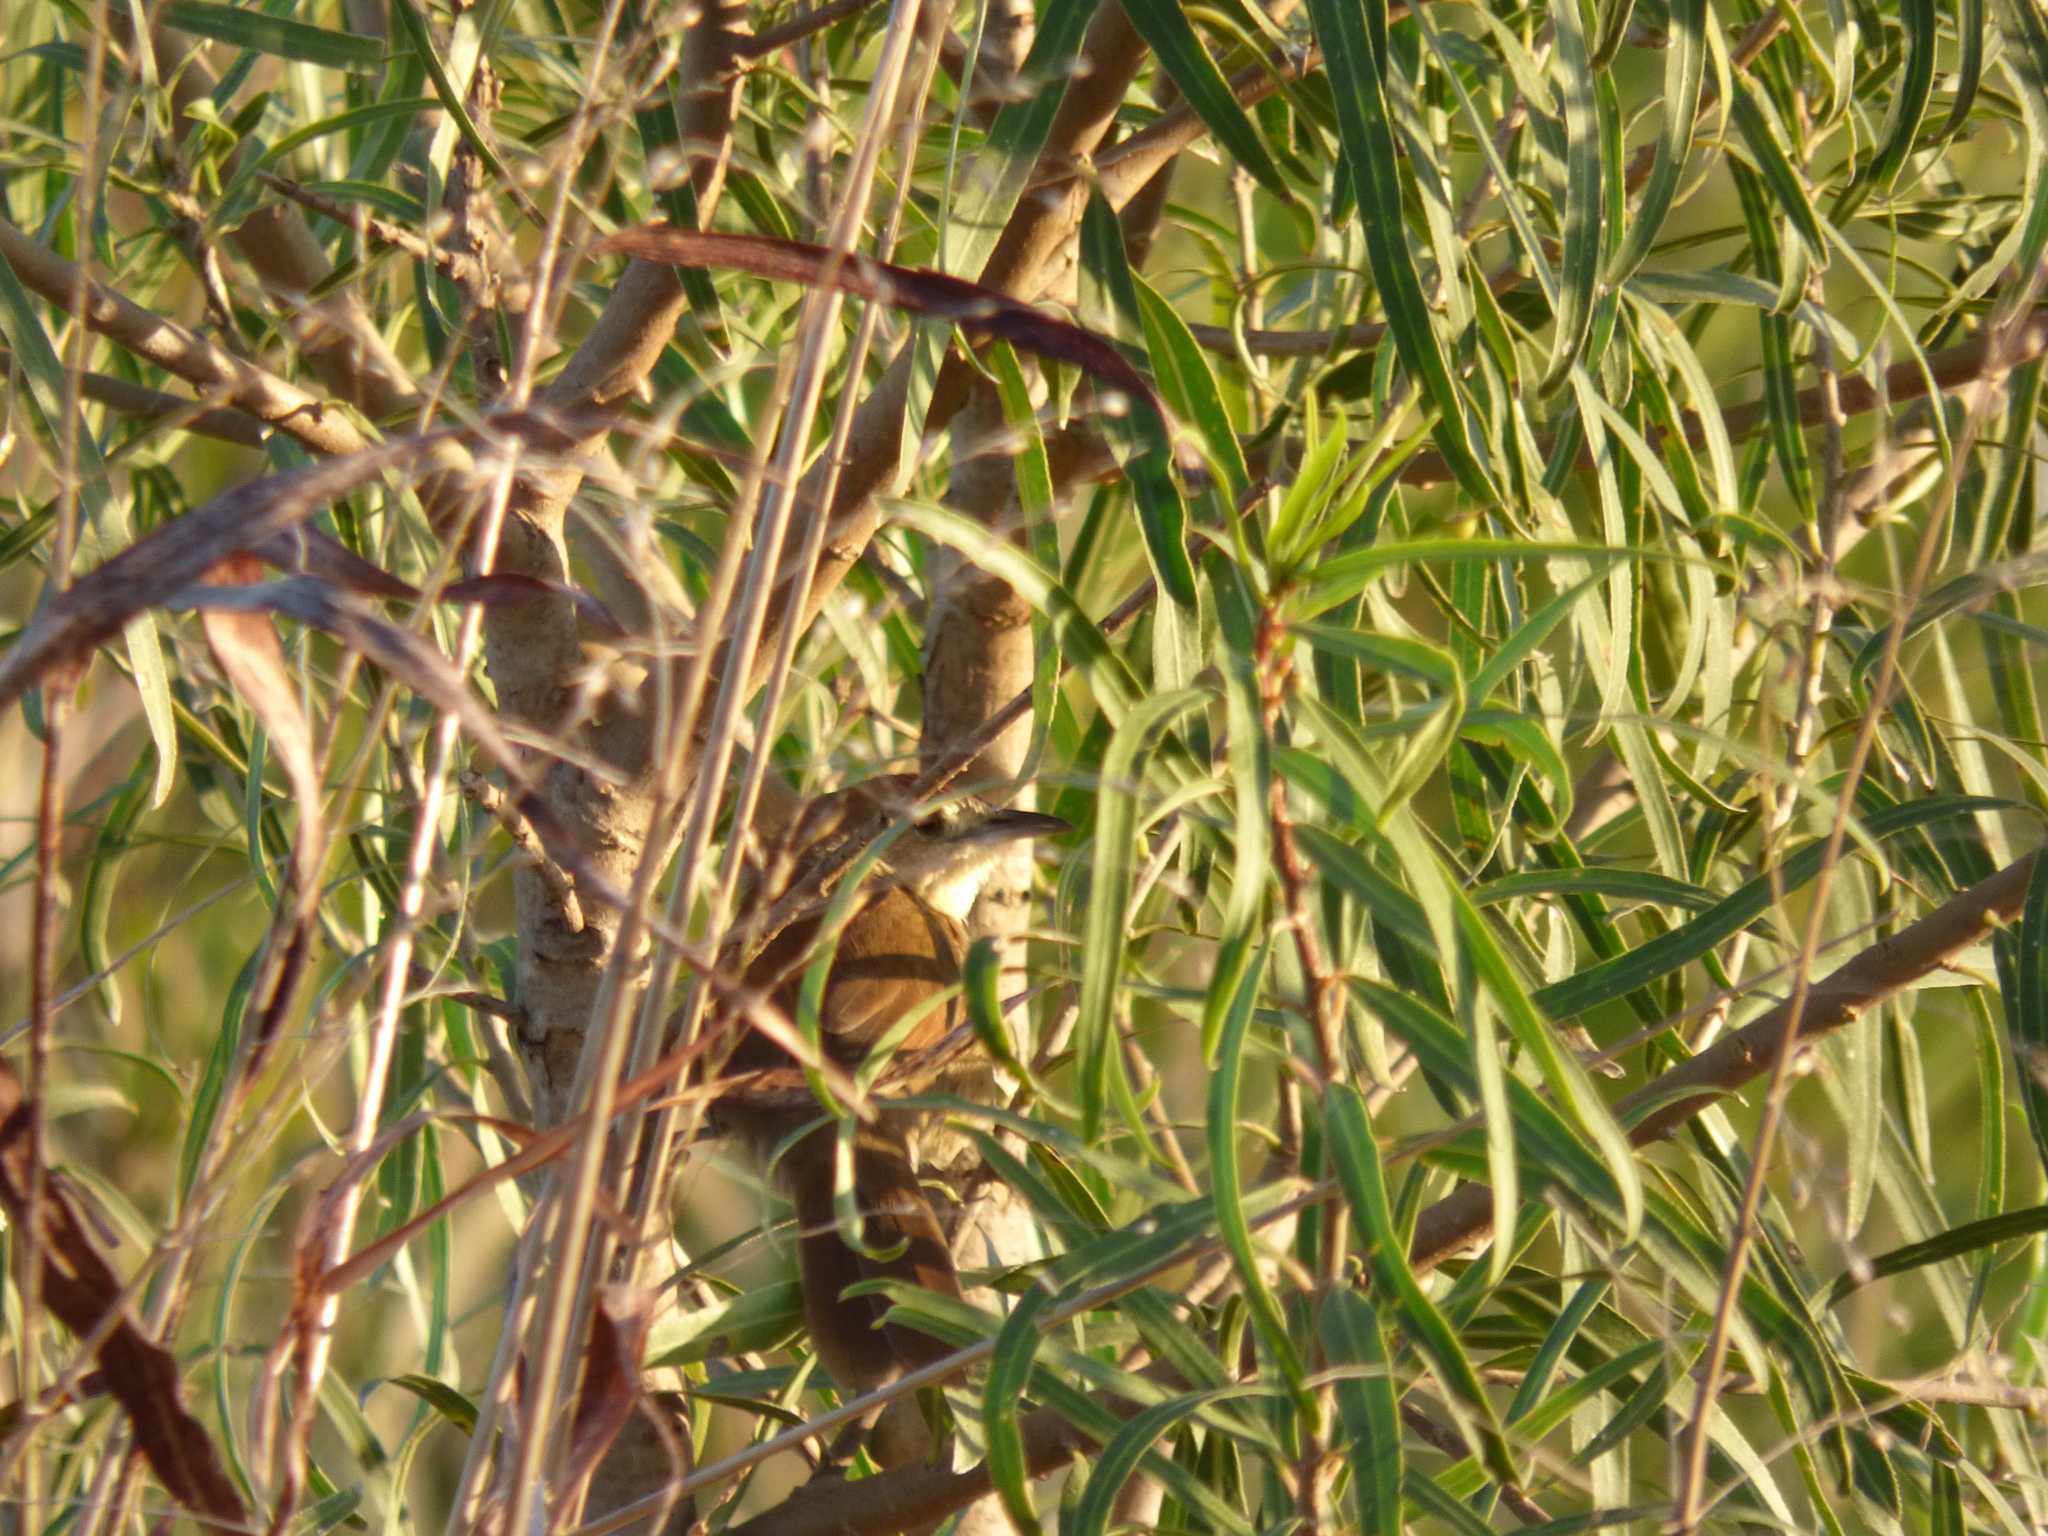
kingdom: Animalia
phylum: Chordata
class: Aves
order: Passeriformes
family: Furnariidae
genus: Phacellodomus
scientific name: Phacellodomus striaticollis
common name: Freckle-breasted thornbird
